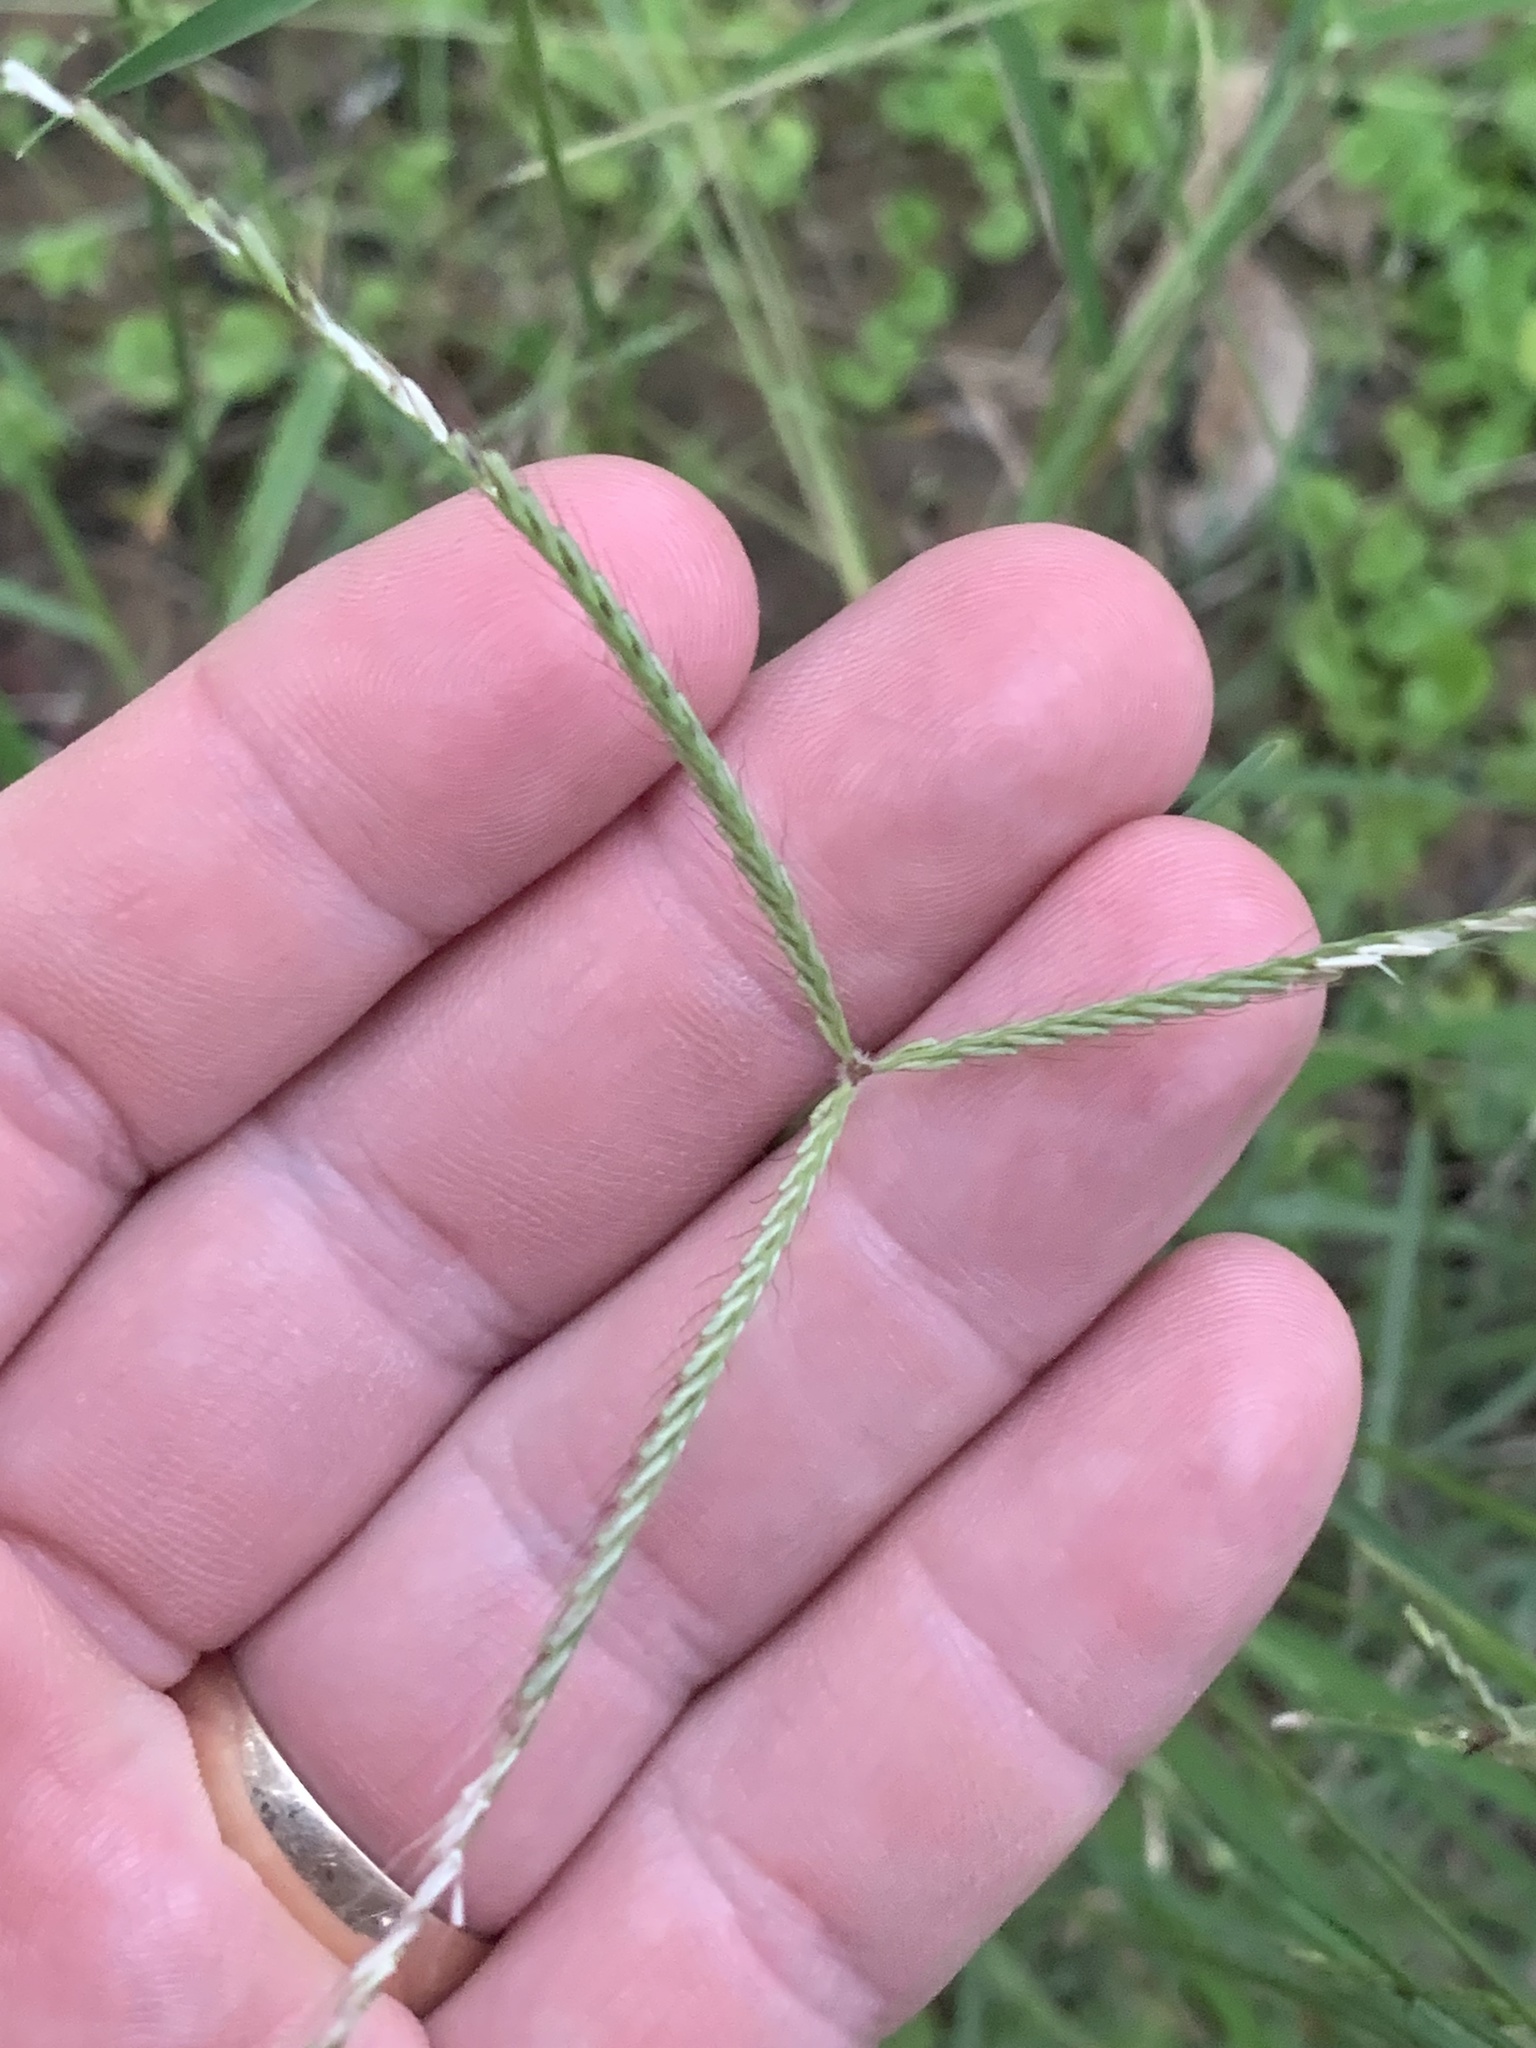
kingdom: Plantae
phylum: Tracheophyta
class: Liliopsida
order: Poales
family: Poaceae
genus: Chloris
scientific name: Chloris ventricosa
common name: Australian windmill grass
